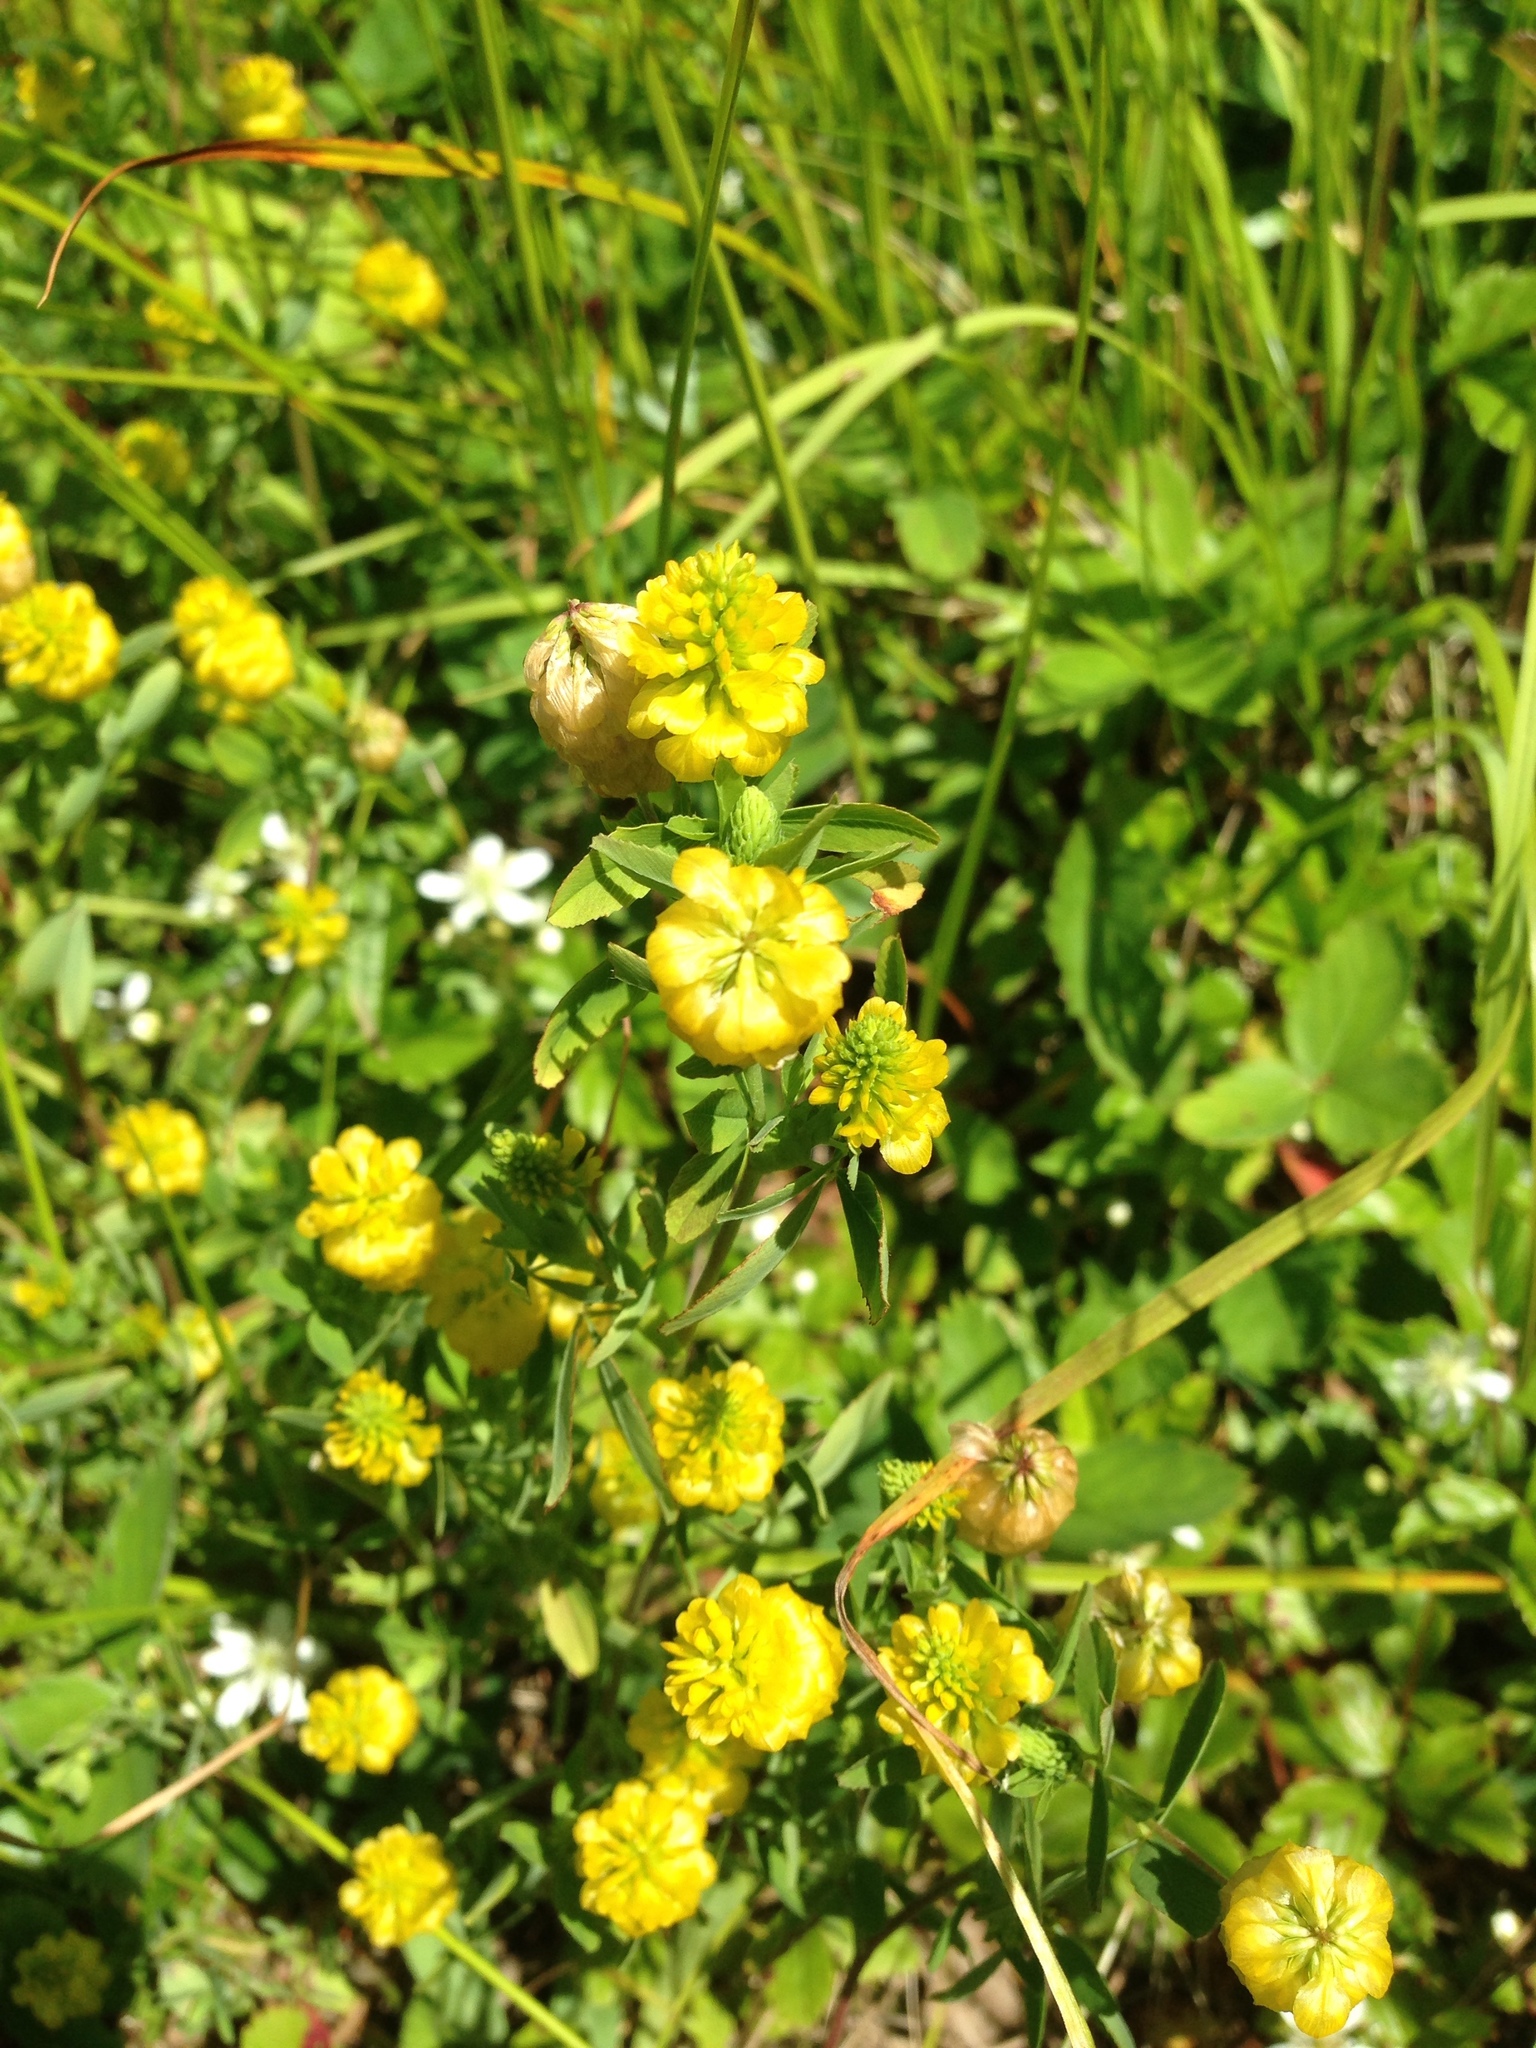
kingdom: Plantae
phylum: Tracheophyta
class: Magnoliopsida
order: Fabales
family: Fabaceae
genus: Trifolium
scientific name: Trifolium aureum
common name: Golden clover
